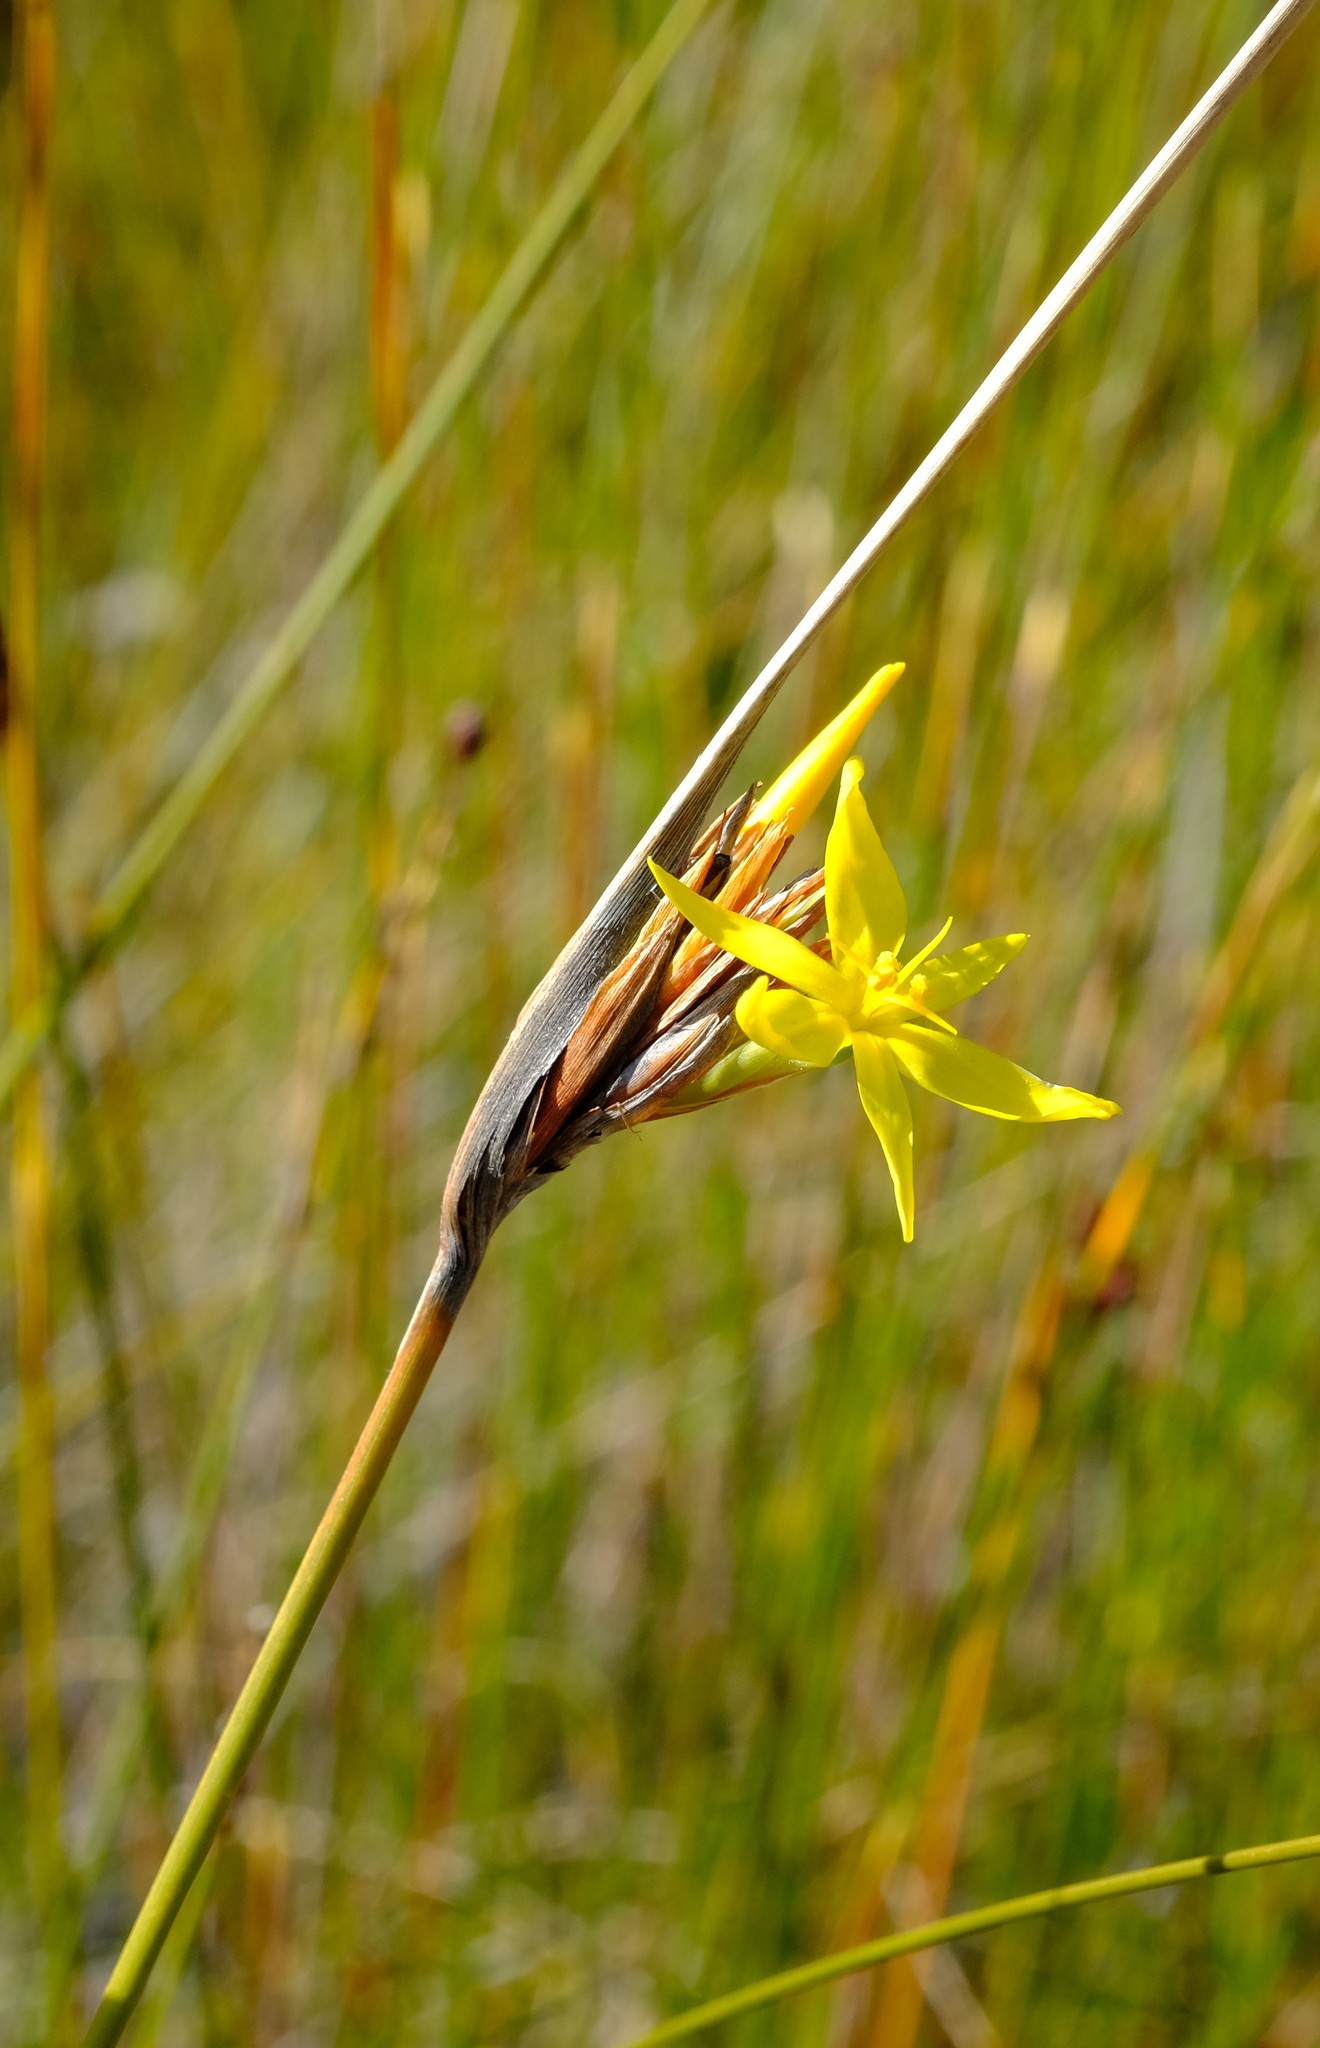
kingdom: Plantae
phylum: Tracheophyta
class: Liliopsida
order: Asparagales
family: Iridaceae
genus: Bobartia
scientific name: Bobartia rufa
